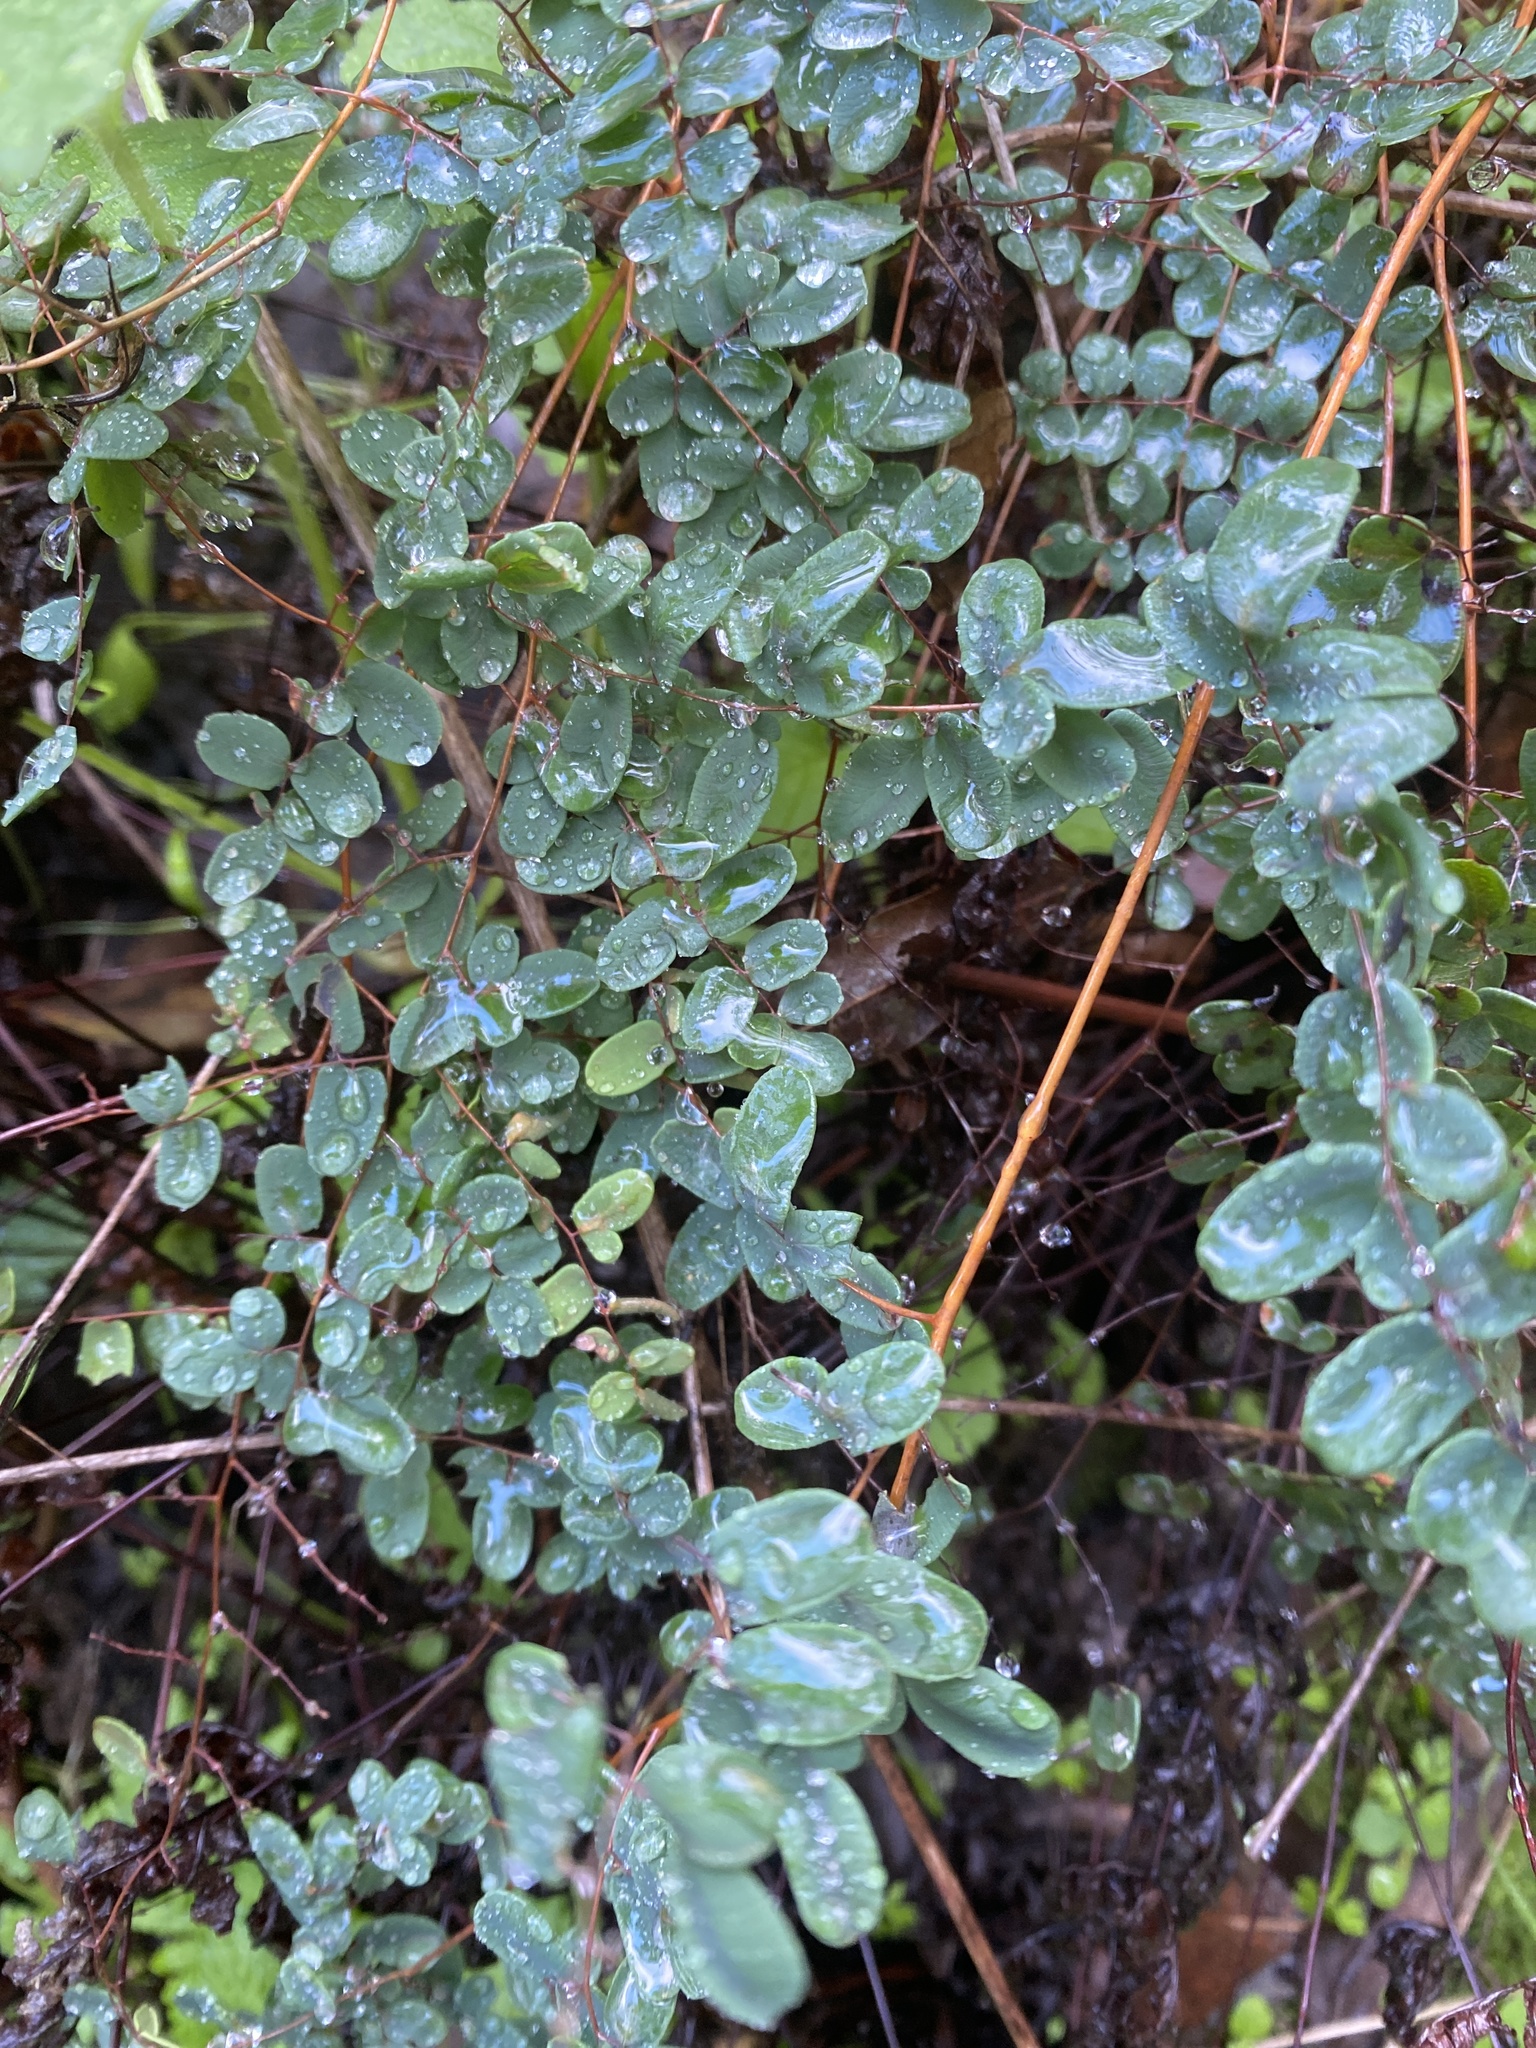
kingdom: Plantae
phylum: Tracheophyta
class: Polypodiopsida
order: Polypodiales
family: Pteridaceae
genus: Pellaea
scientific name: Pellaea andromedifolia
